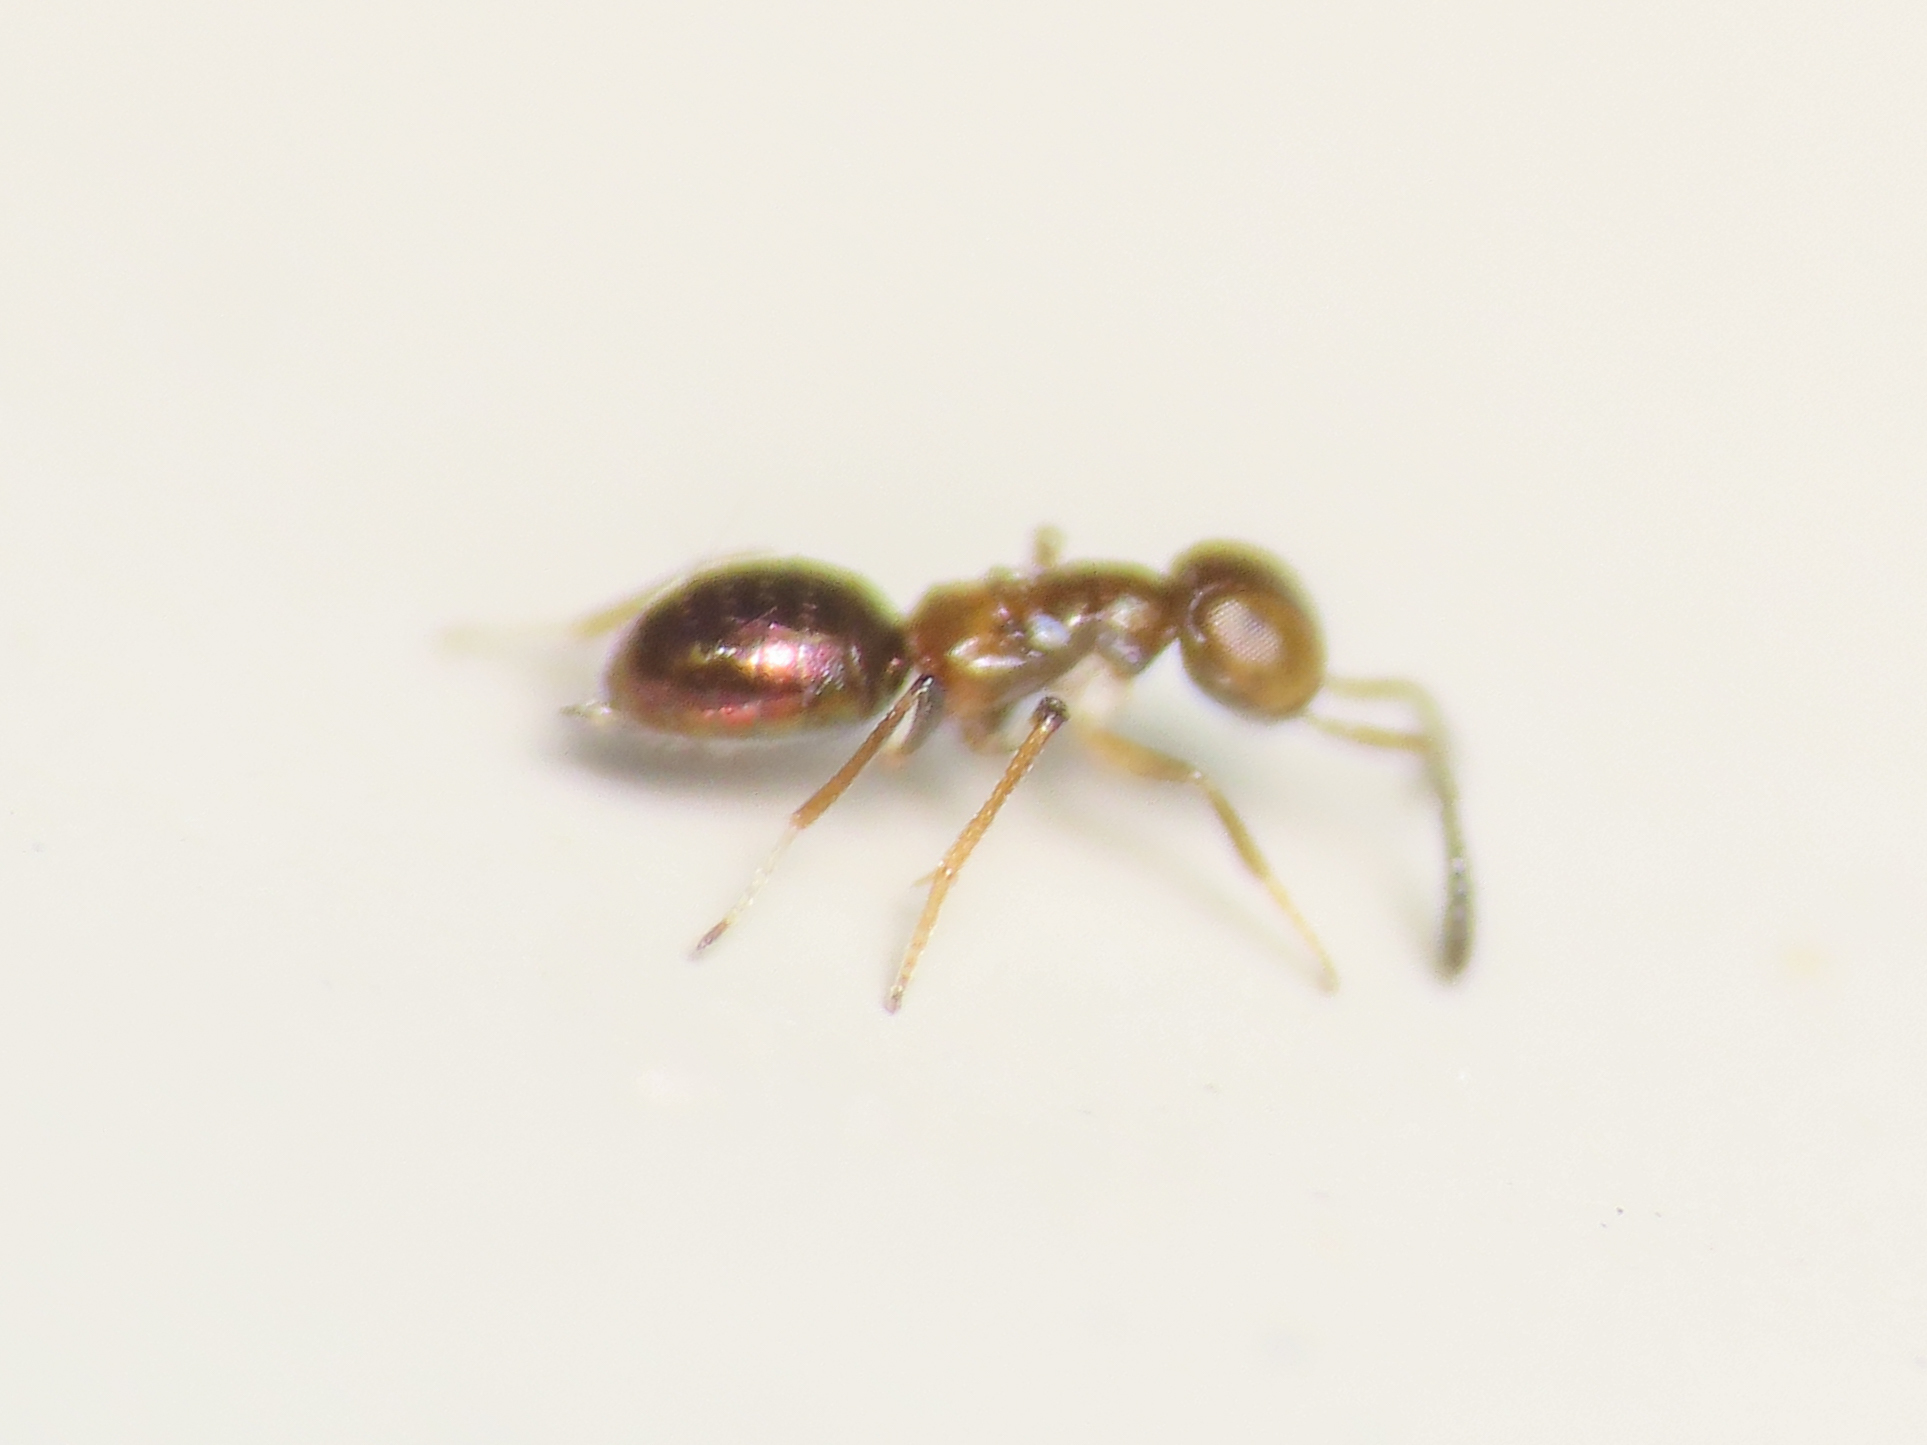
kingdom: Animalia
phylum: Arthropoda
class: Insecta
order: Hymenoptera
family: Encyrtidae
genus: Metanotalia
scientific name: Metanotalia maderensis
